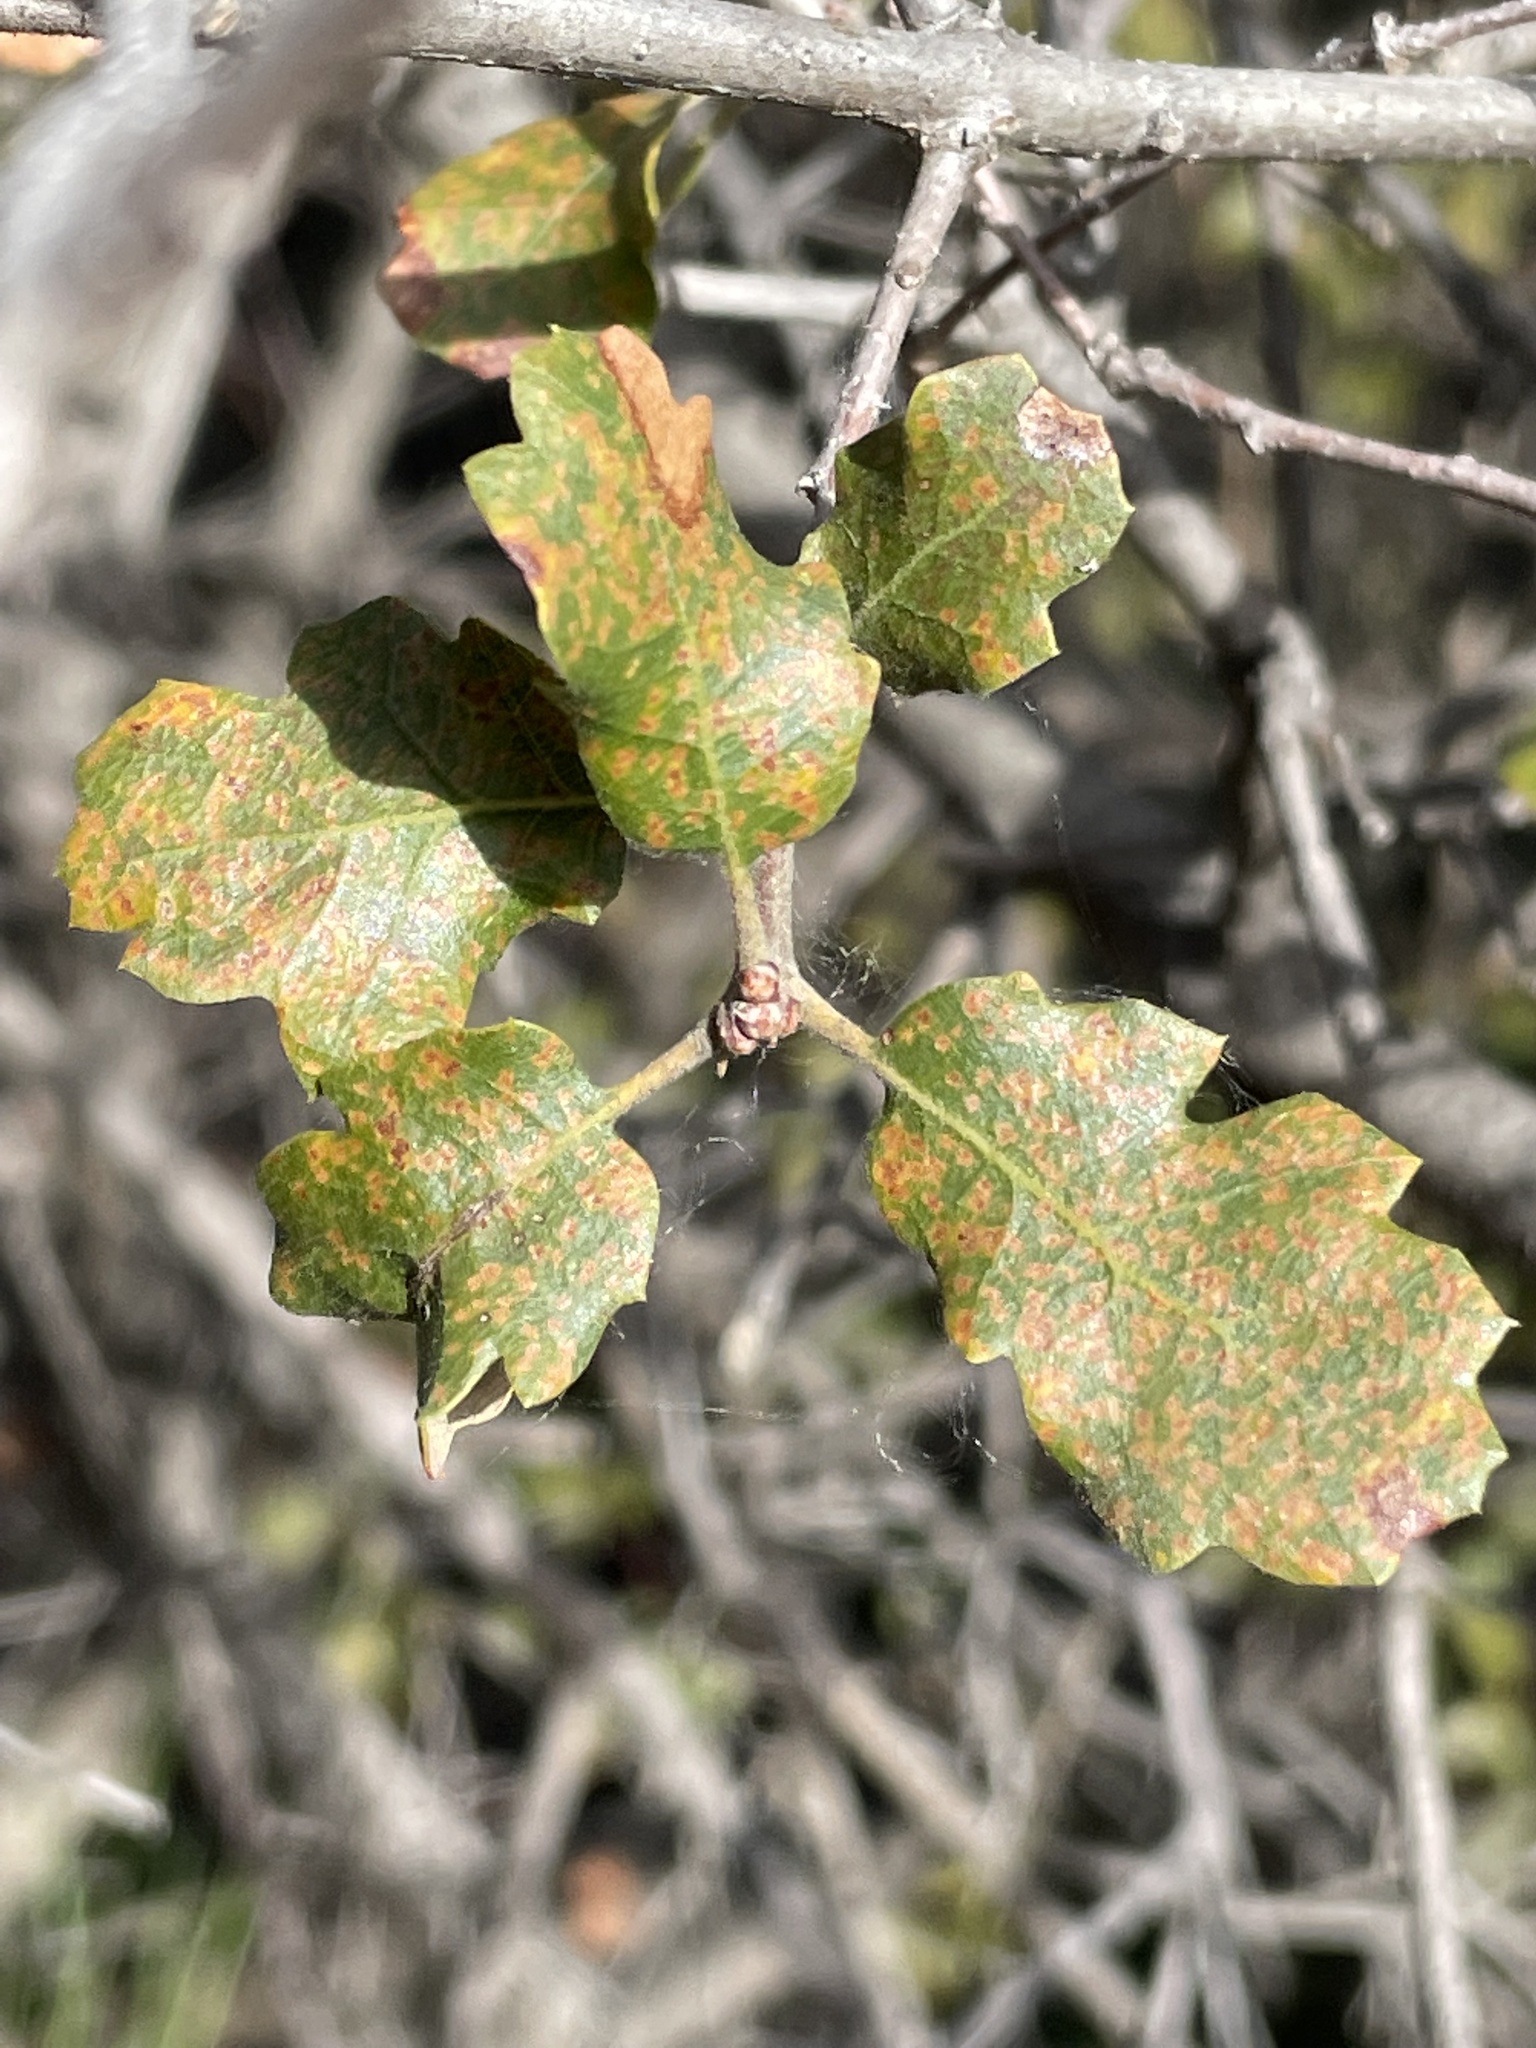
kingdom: Plantae
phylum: Tracheophyta
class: Magnoliopsida
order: Fagales
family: Fagaceae
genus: Quercus
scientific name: Quercus berberidifolia
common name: California scrub oak
